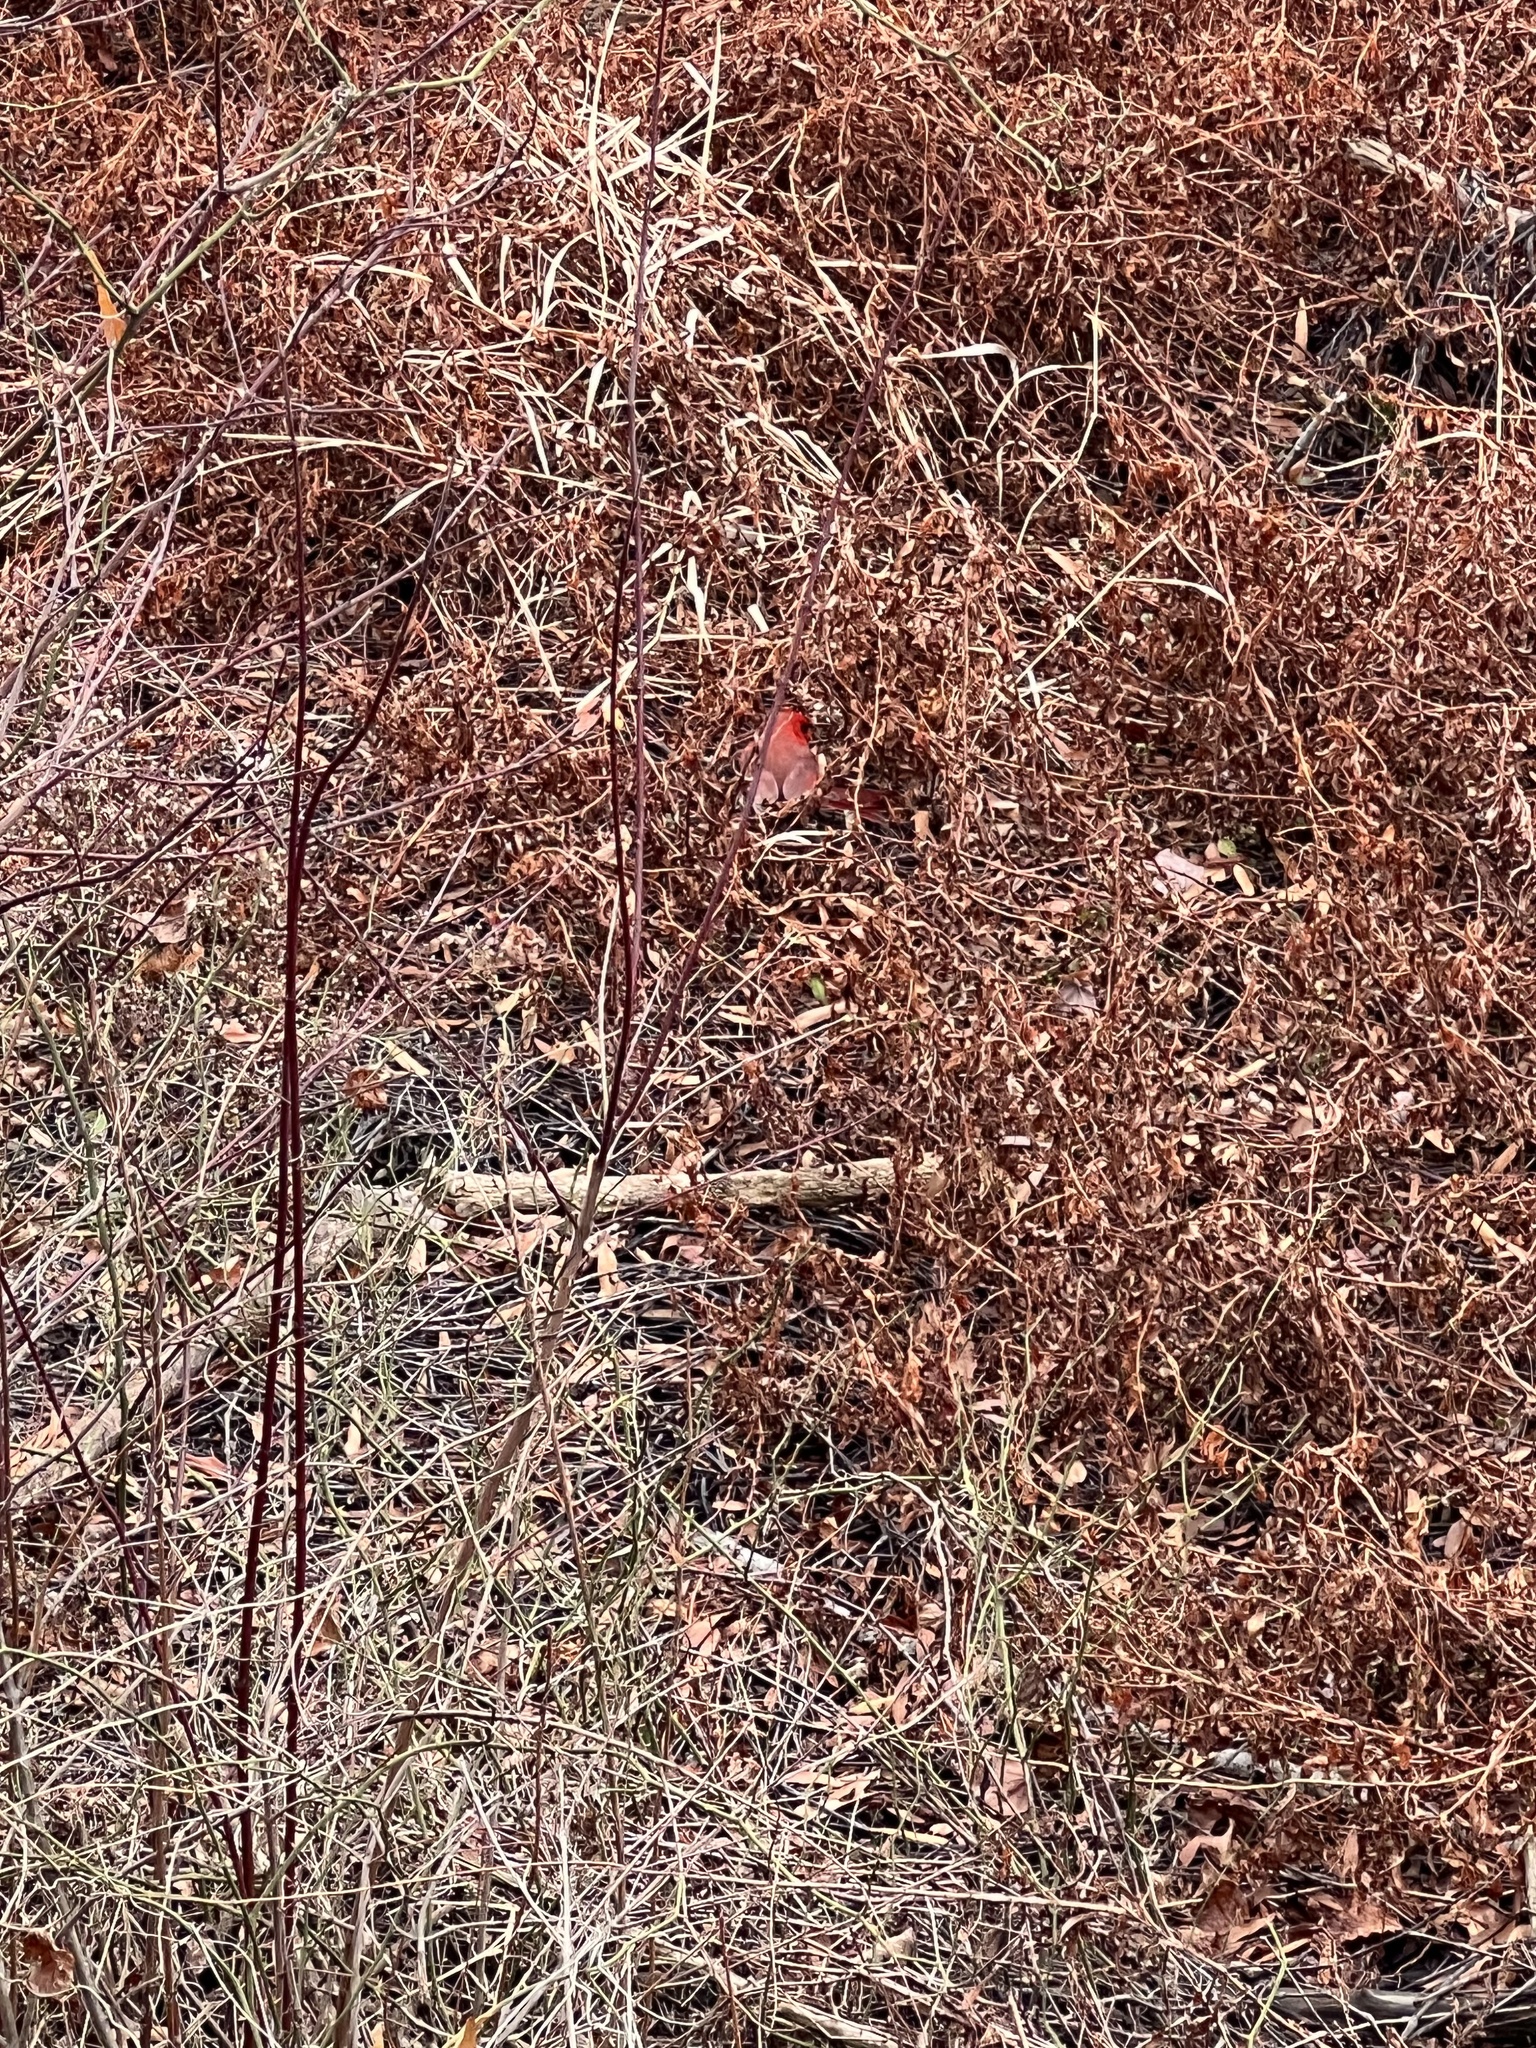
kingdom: Animalia
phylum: Chordata
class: Aves
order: Passeriformes
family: Cardinalidae
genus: Cardinalis
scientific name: Cardinalis cardinalis
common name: Northern cardinal
